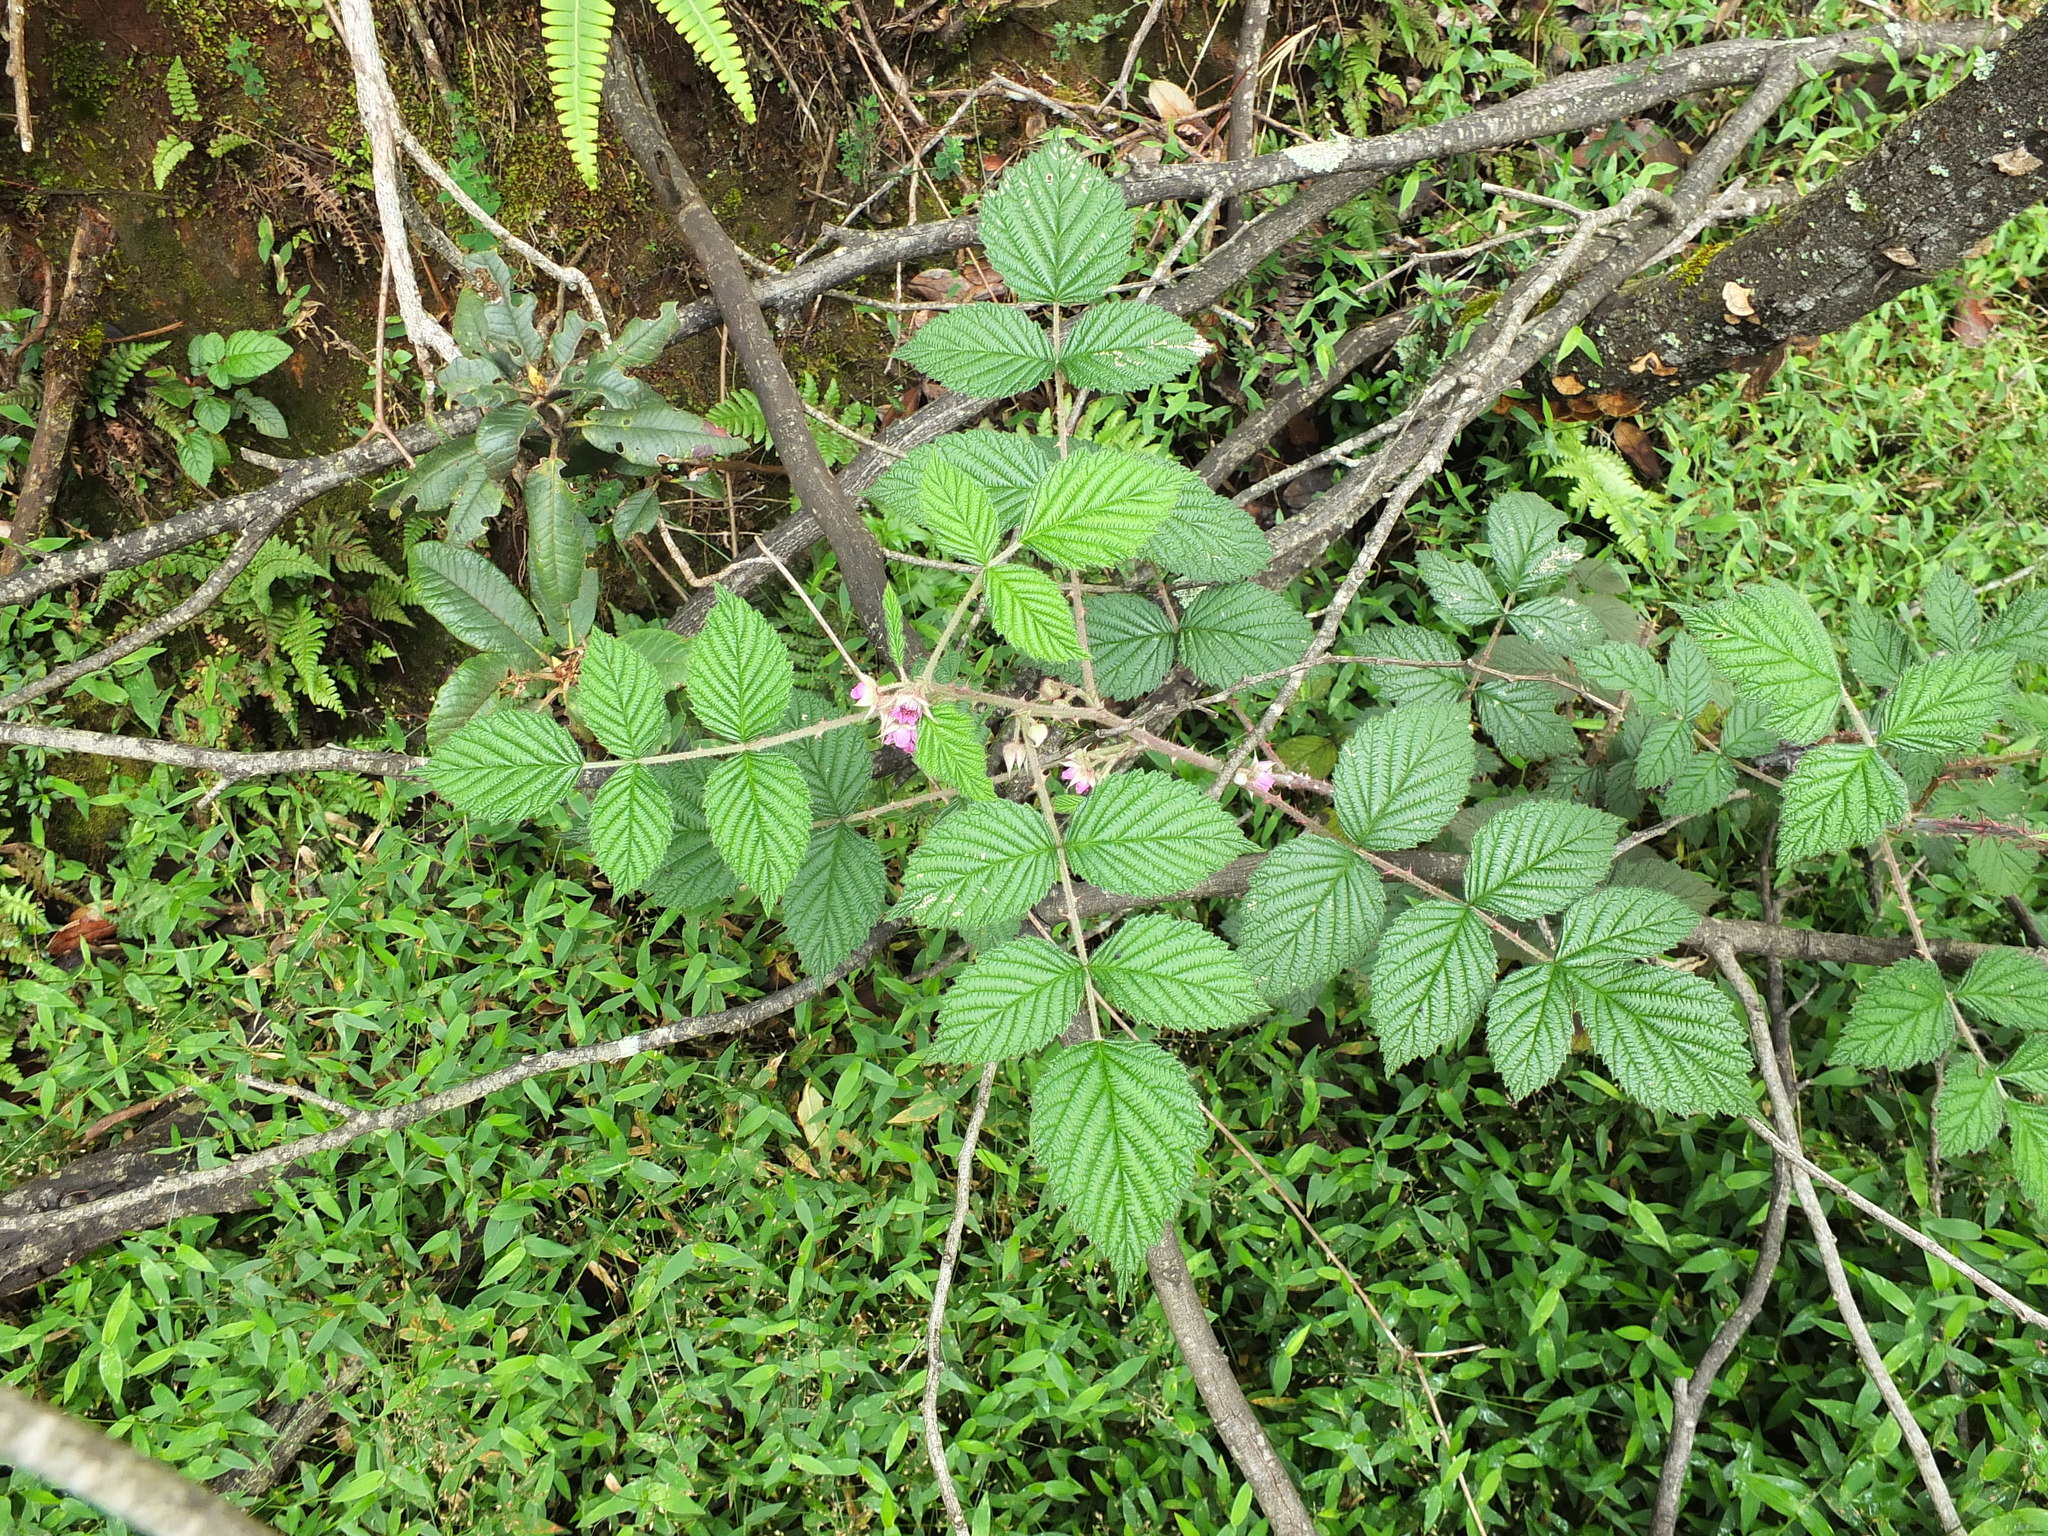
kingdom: Plantae
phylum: Tracheophyta
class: Magnoliopsida
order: Rosales
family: Rosaceae
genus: Rubus
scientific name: Rubus niveus
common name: Snowpeaks raspberry
